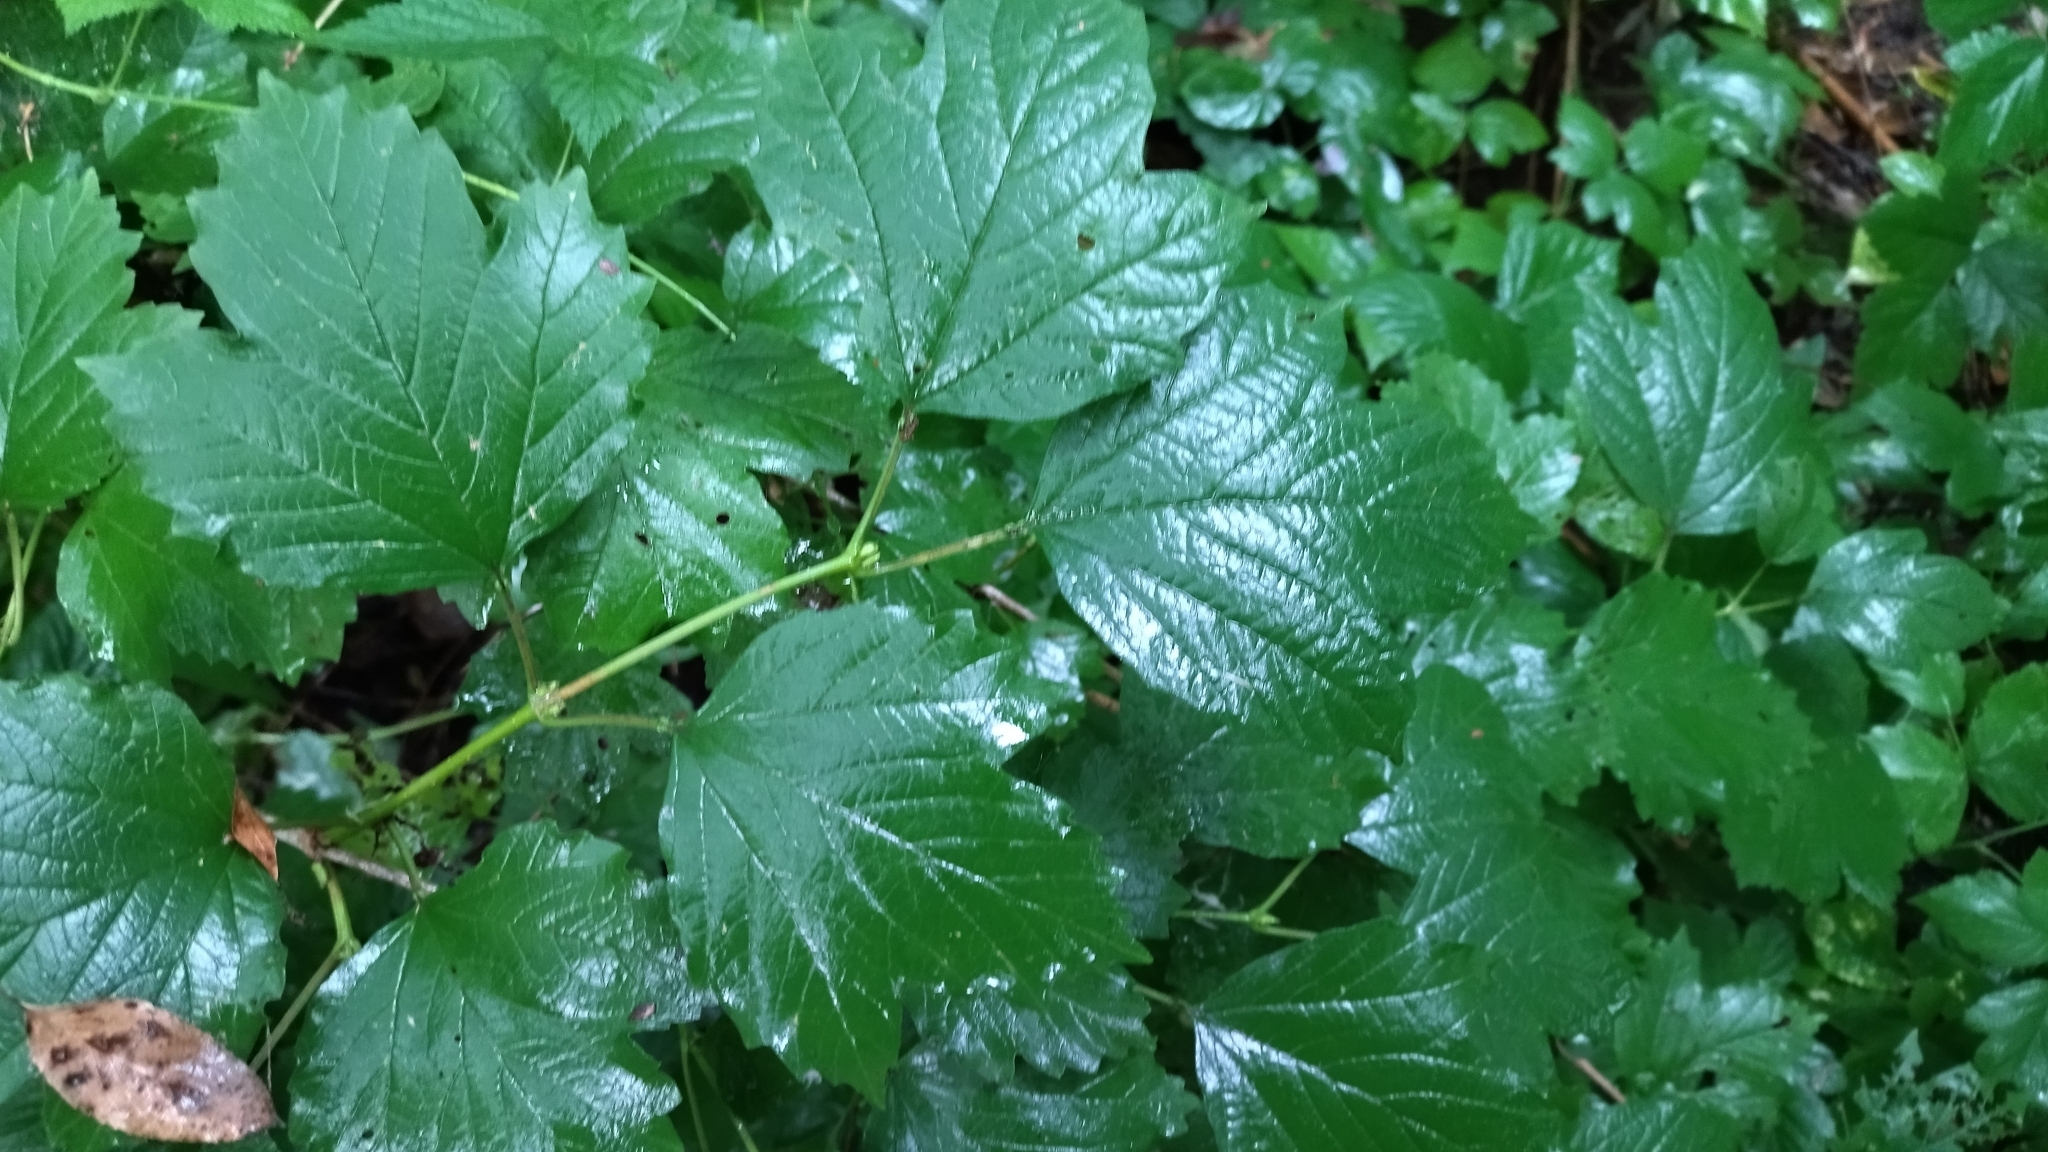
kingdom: Plantae
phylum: Tracheophyta
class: Magnoliopsida
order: Dipsacales
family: Viburnaceae
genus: Viburnum
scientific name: Viburnum opulus
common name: Guelder-rose
